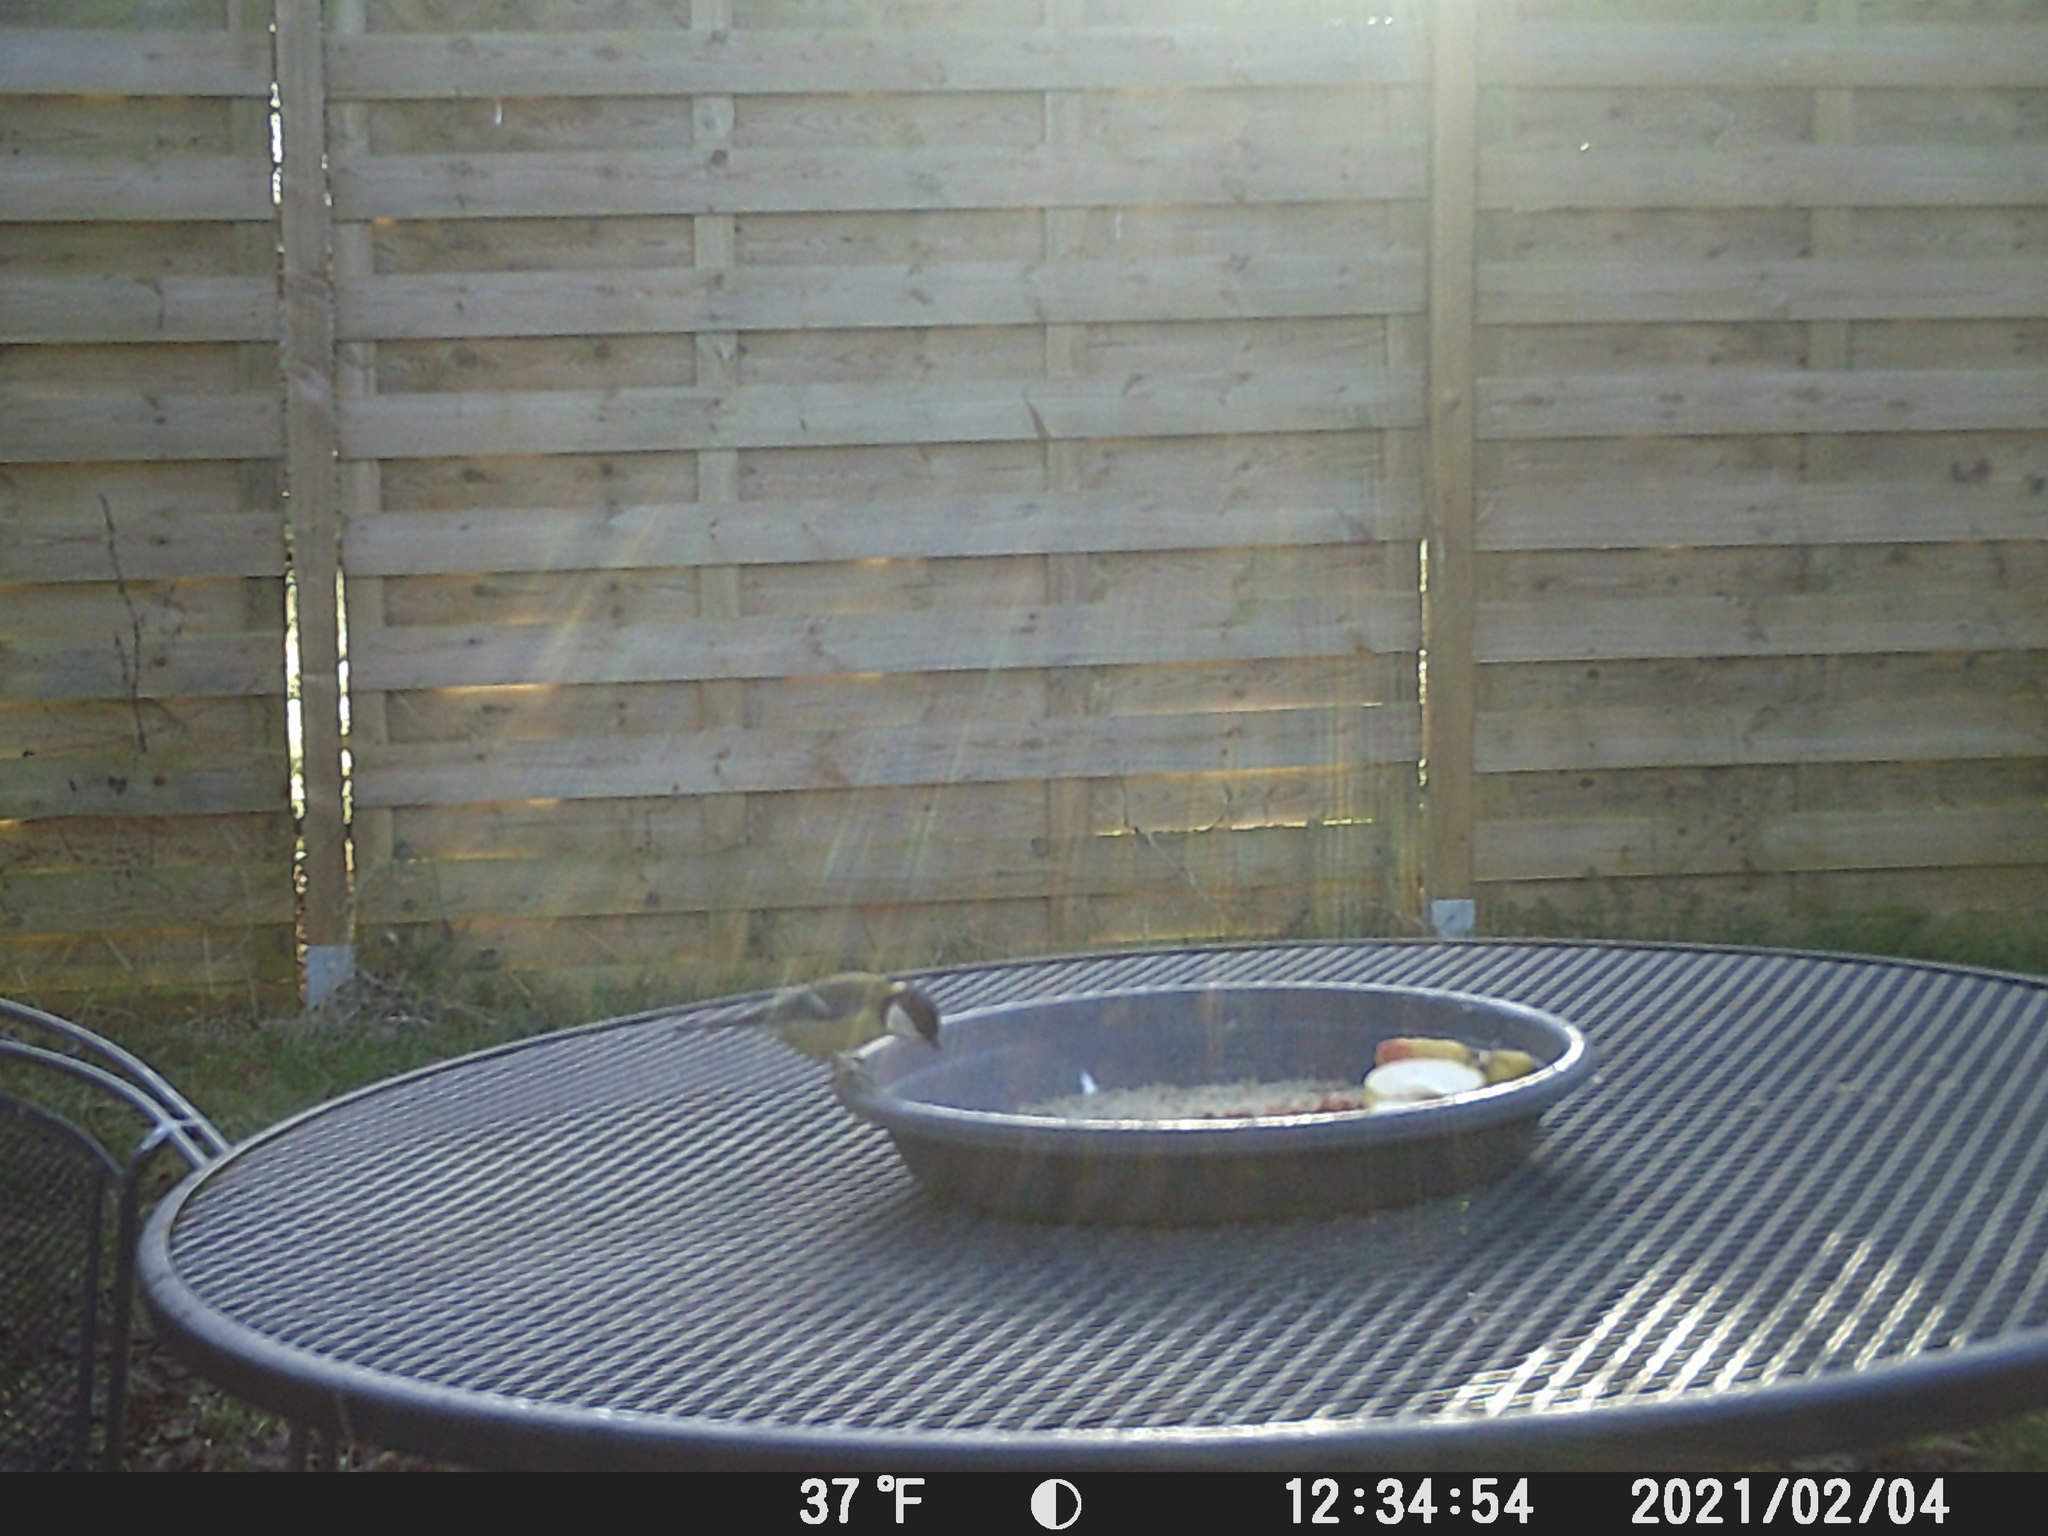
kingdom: Animalia
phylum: Chordata
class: Aves
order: Passeriformes
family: Paridae
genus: Parus
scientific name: Parus major
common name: Great tit
